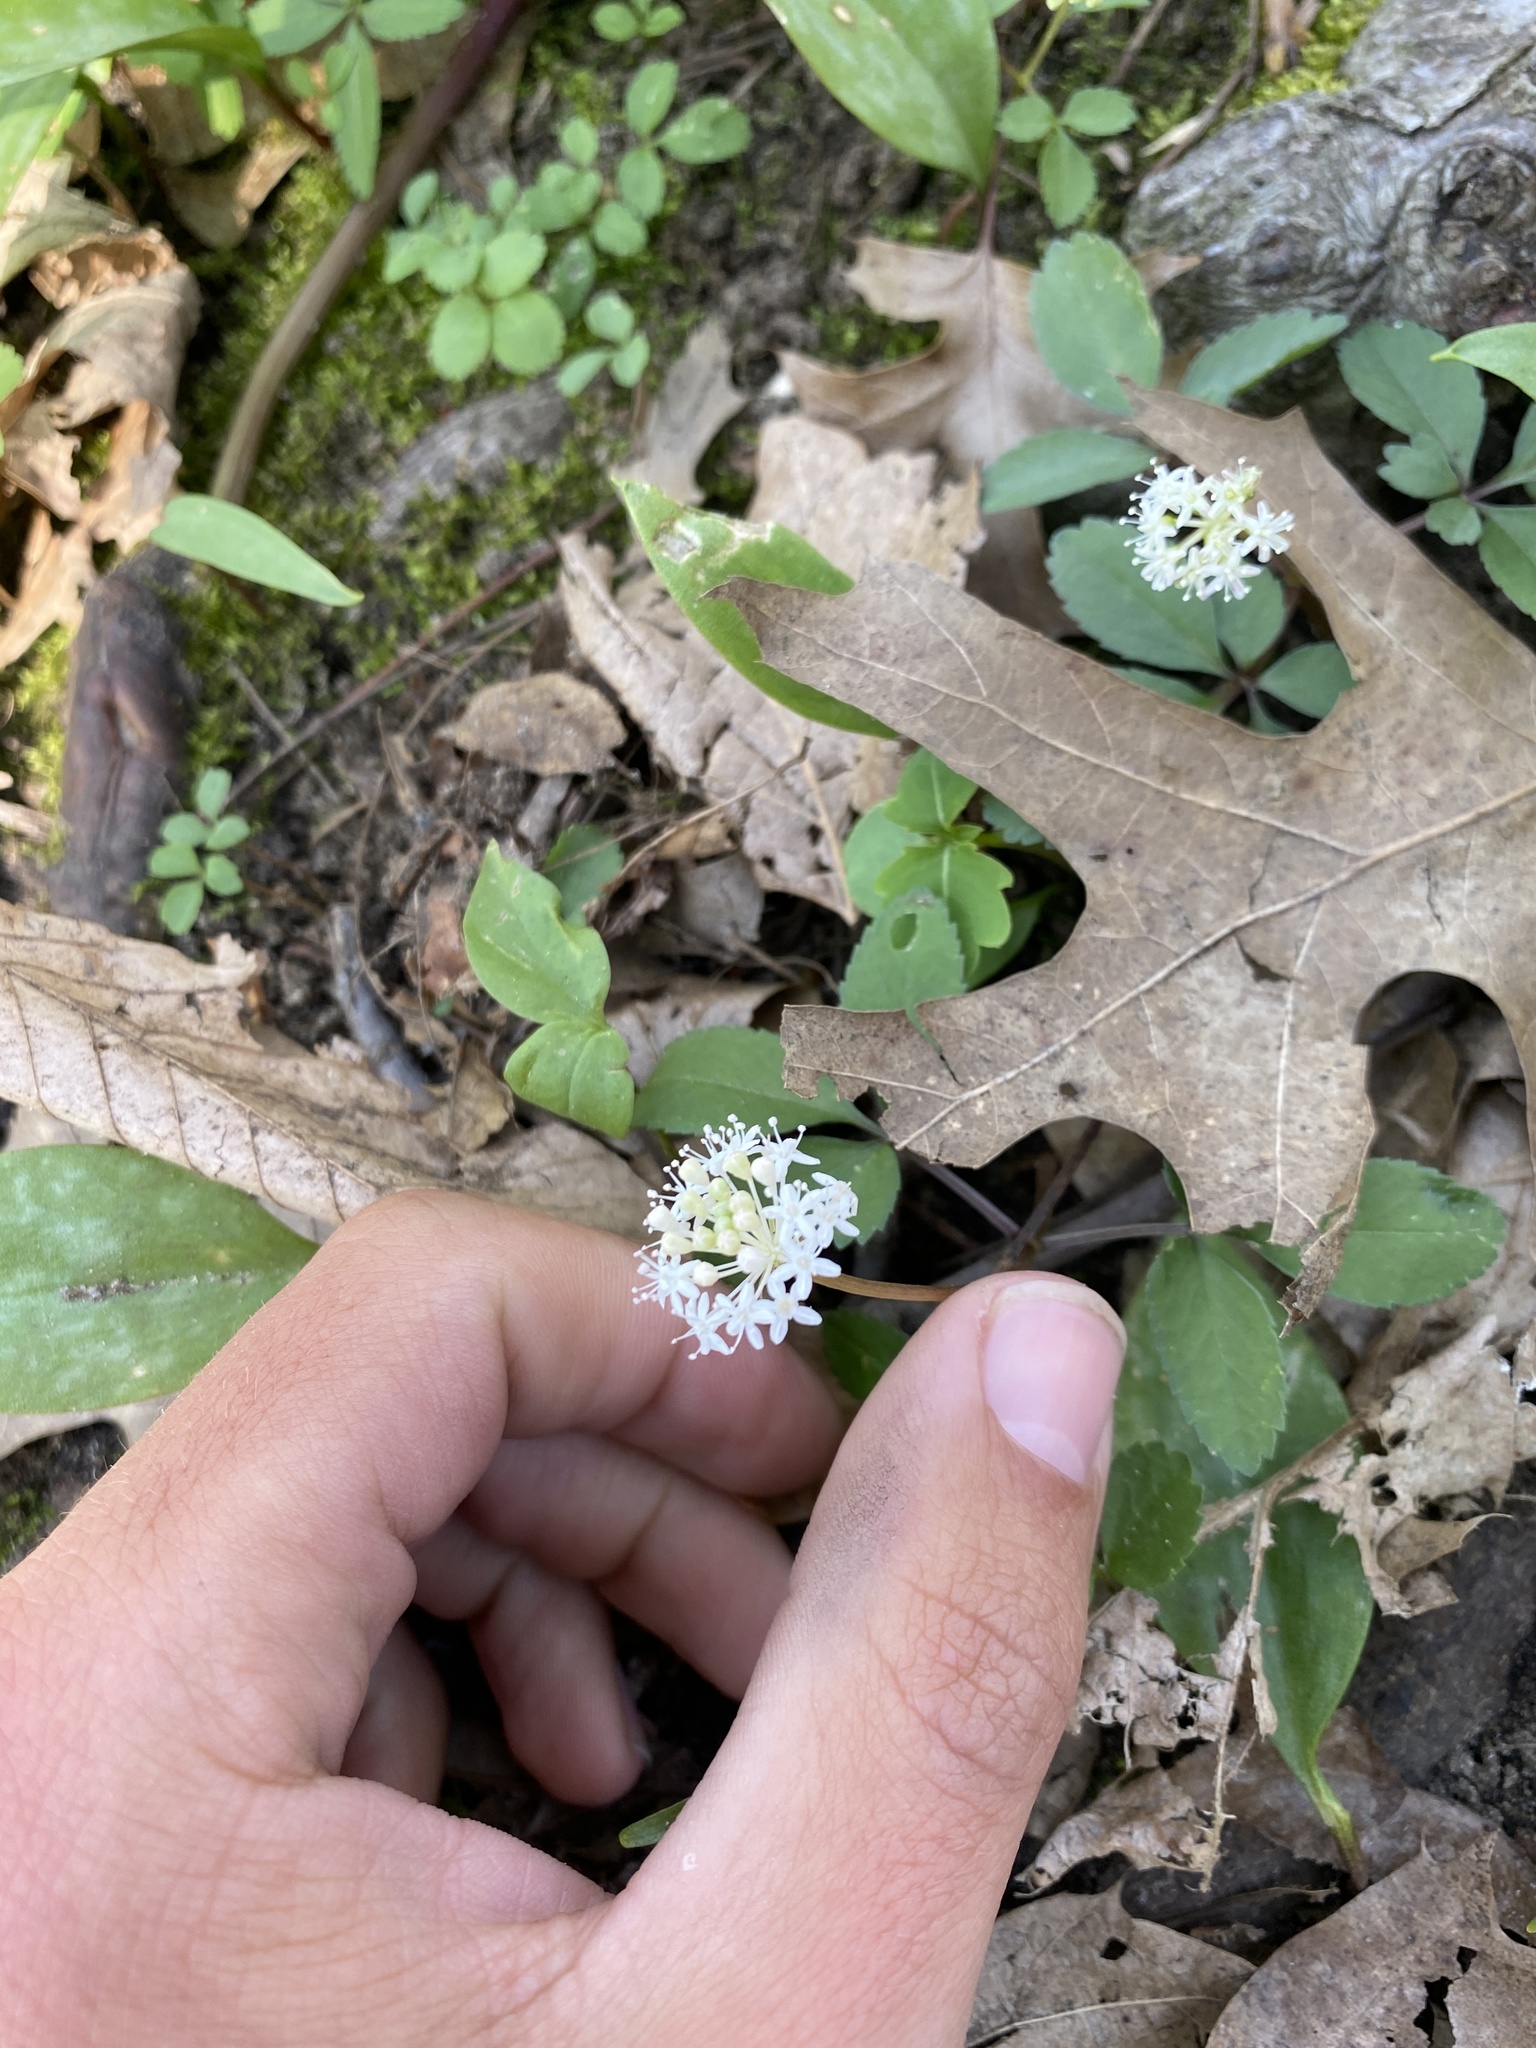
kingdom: Plantae
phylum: Tracheophyta
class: Magnoliopsida
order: Apiales
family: Araliaceae
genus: Panax
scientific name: Panax trifolius
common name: Dwarf ginseng
